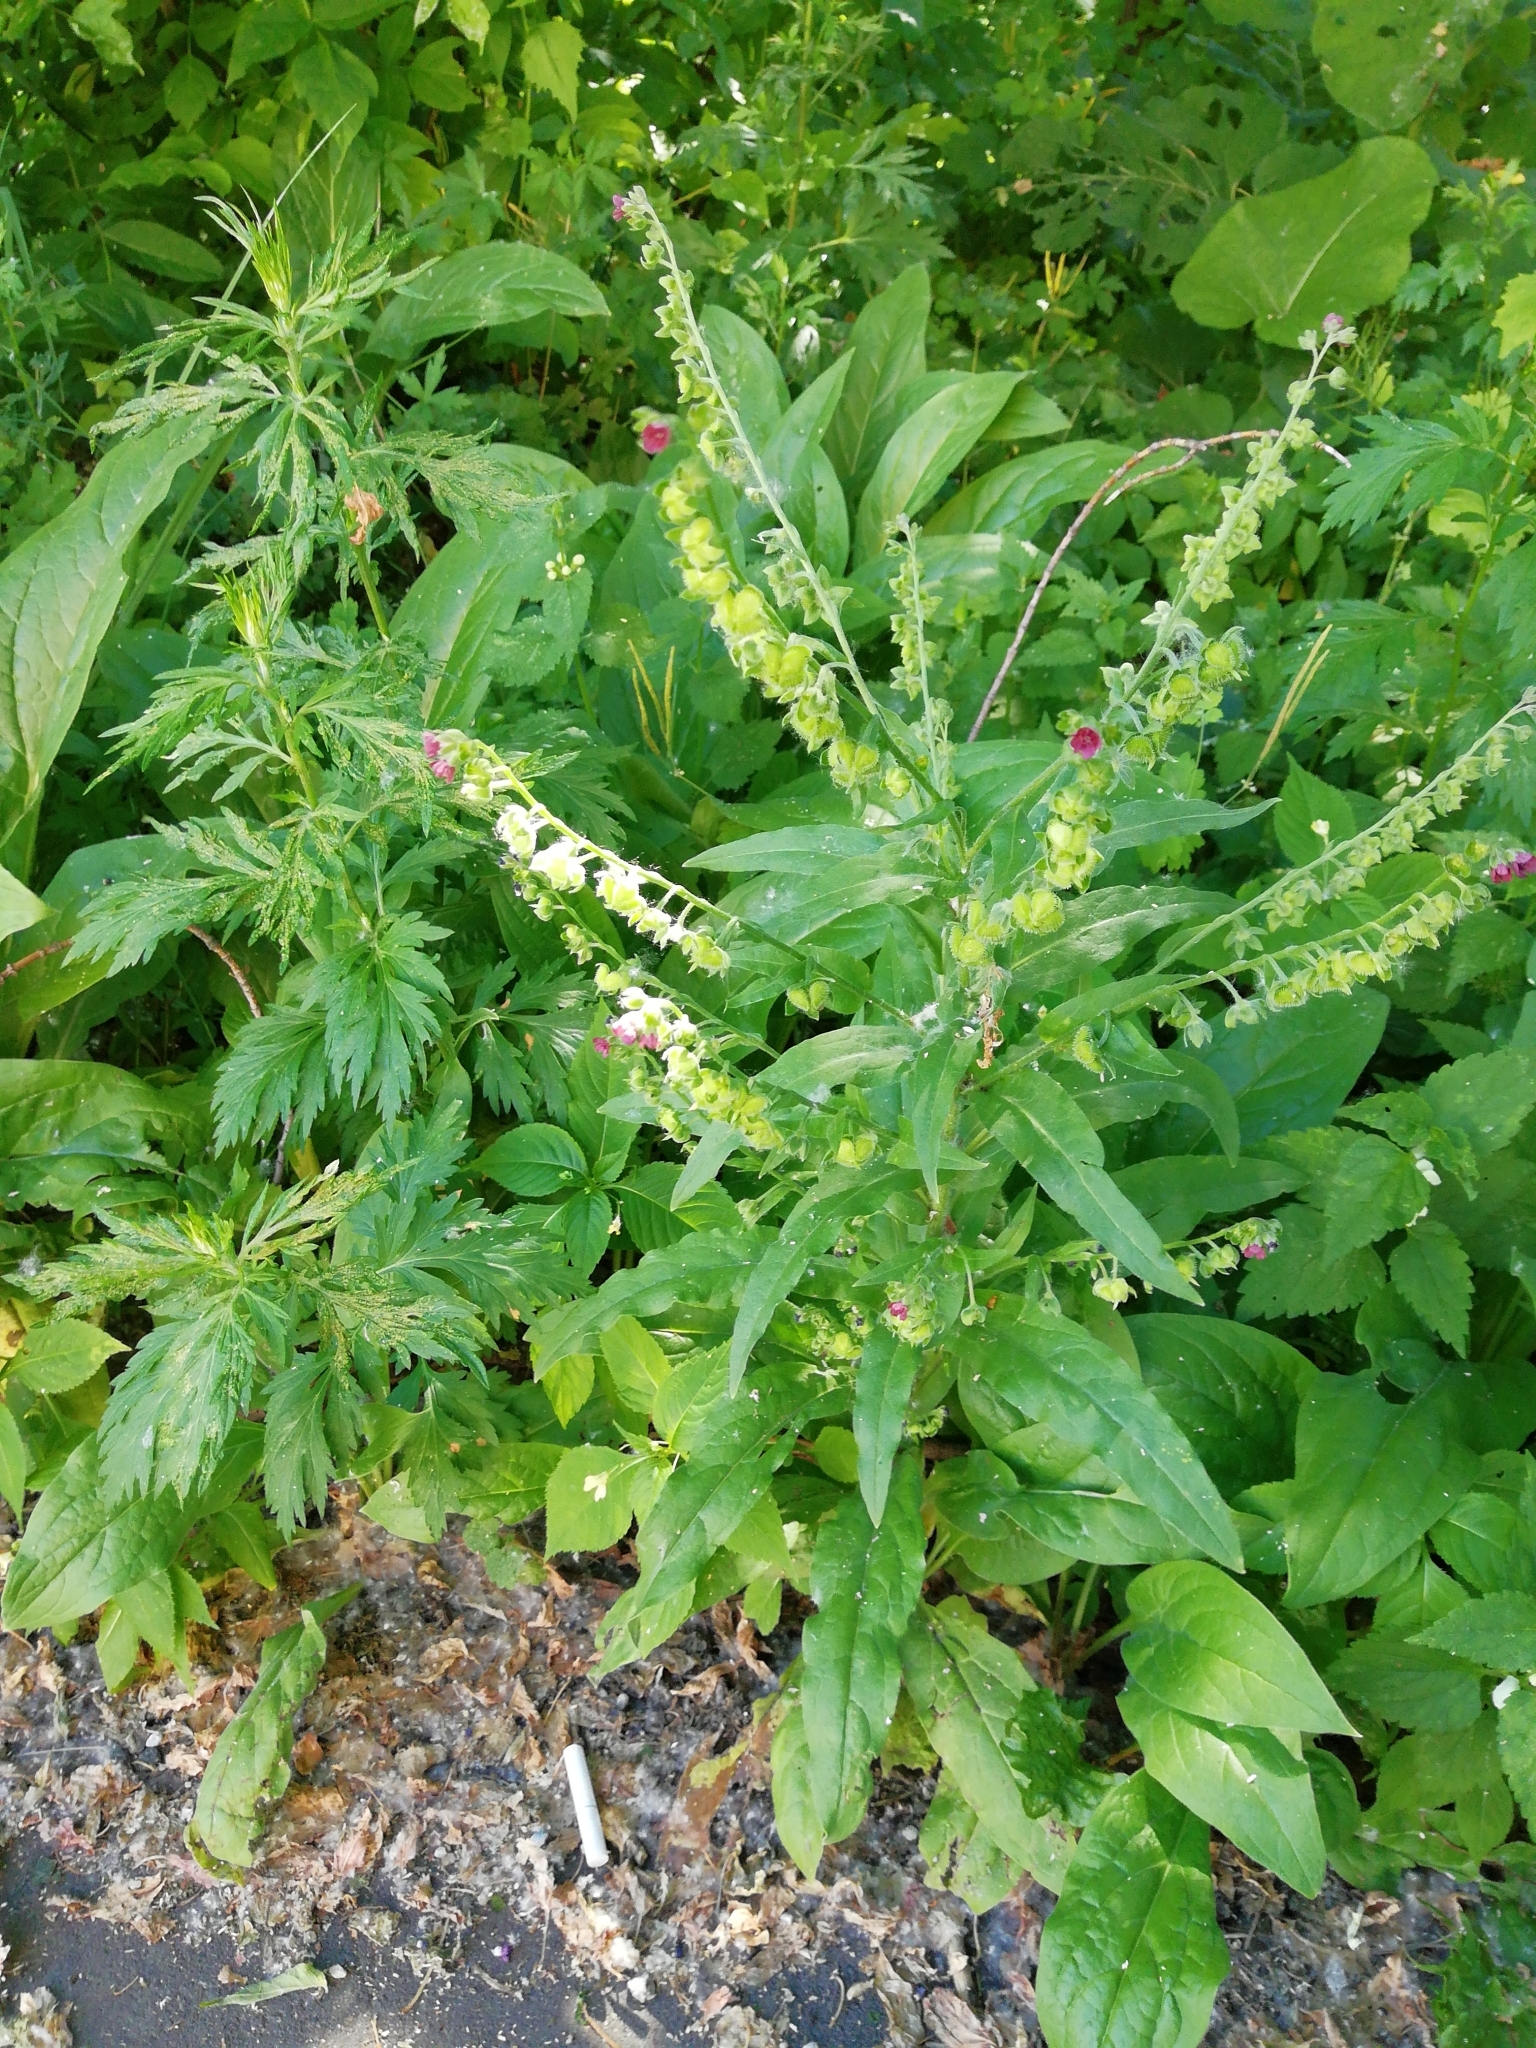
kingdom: Plantae
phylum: Tracheophyta
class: Magnoliopsida
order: Boraginales
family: Boraginaceae
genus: Cynoglossum
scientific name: Cynoglossum officinale
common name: Hound's-tongue
